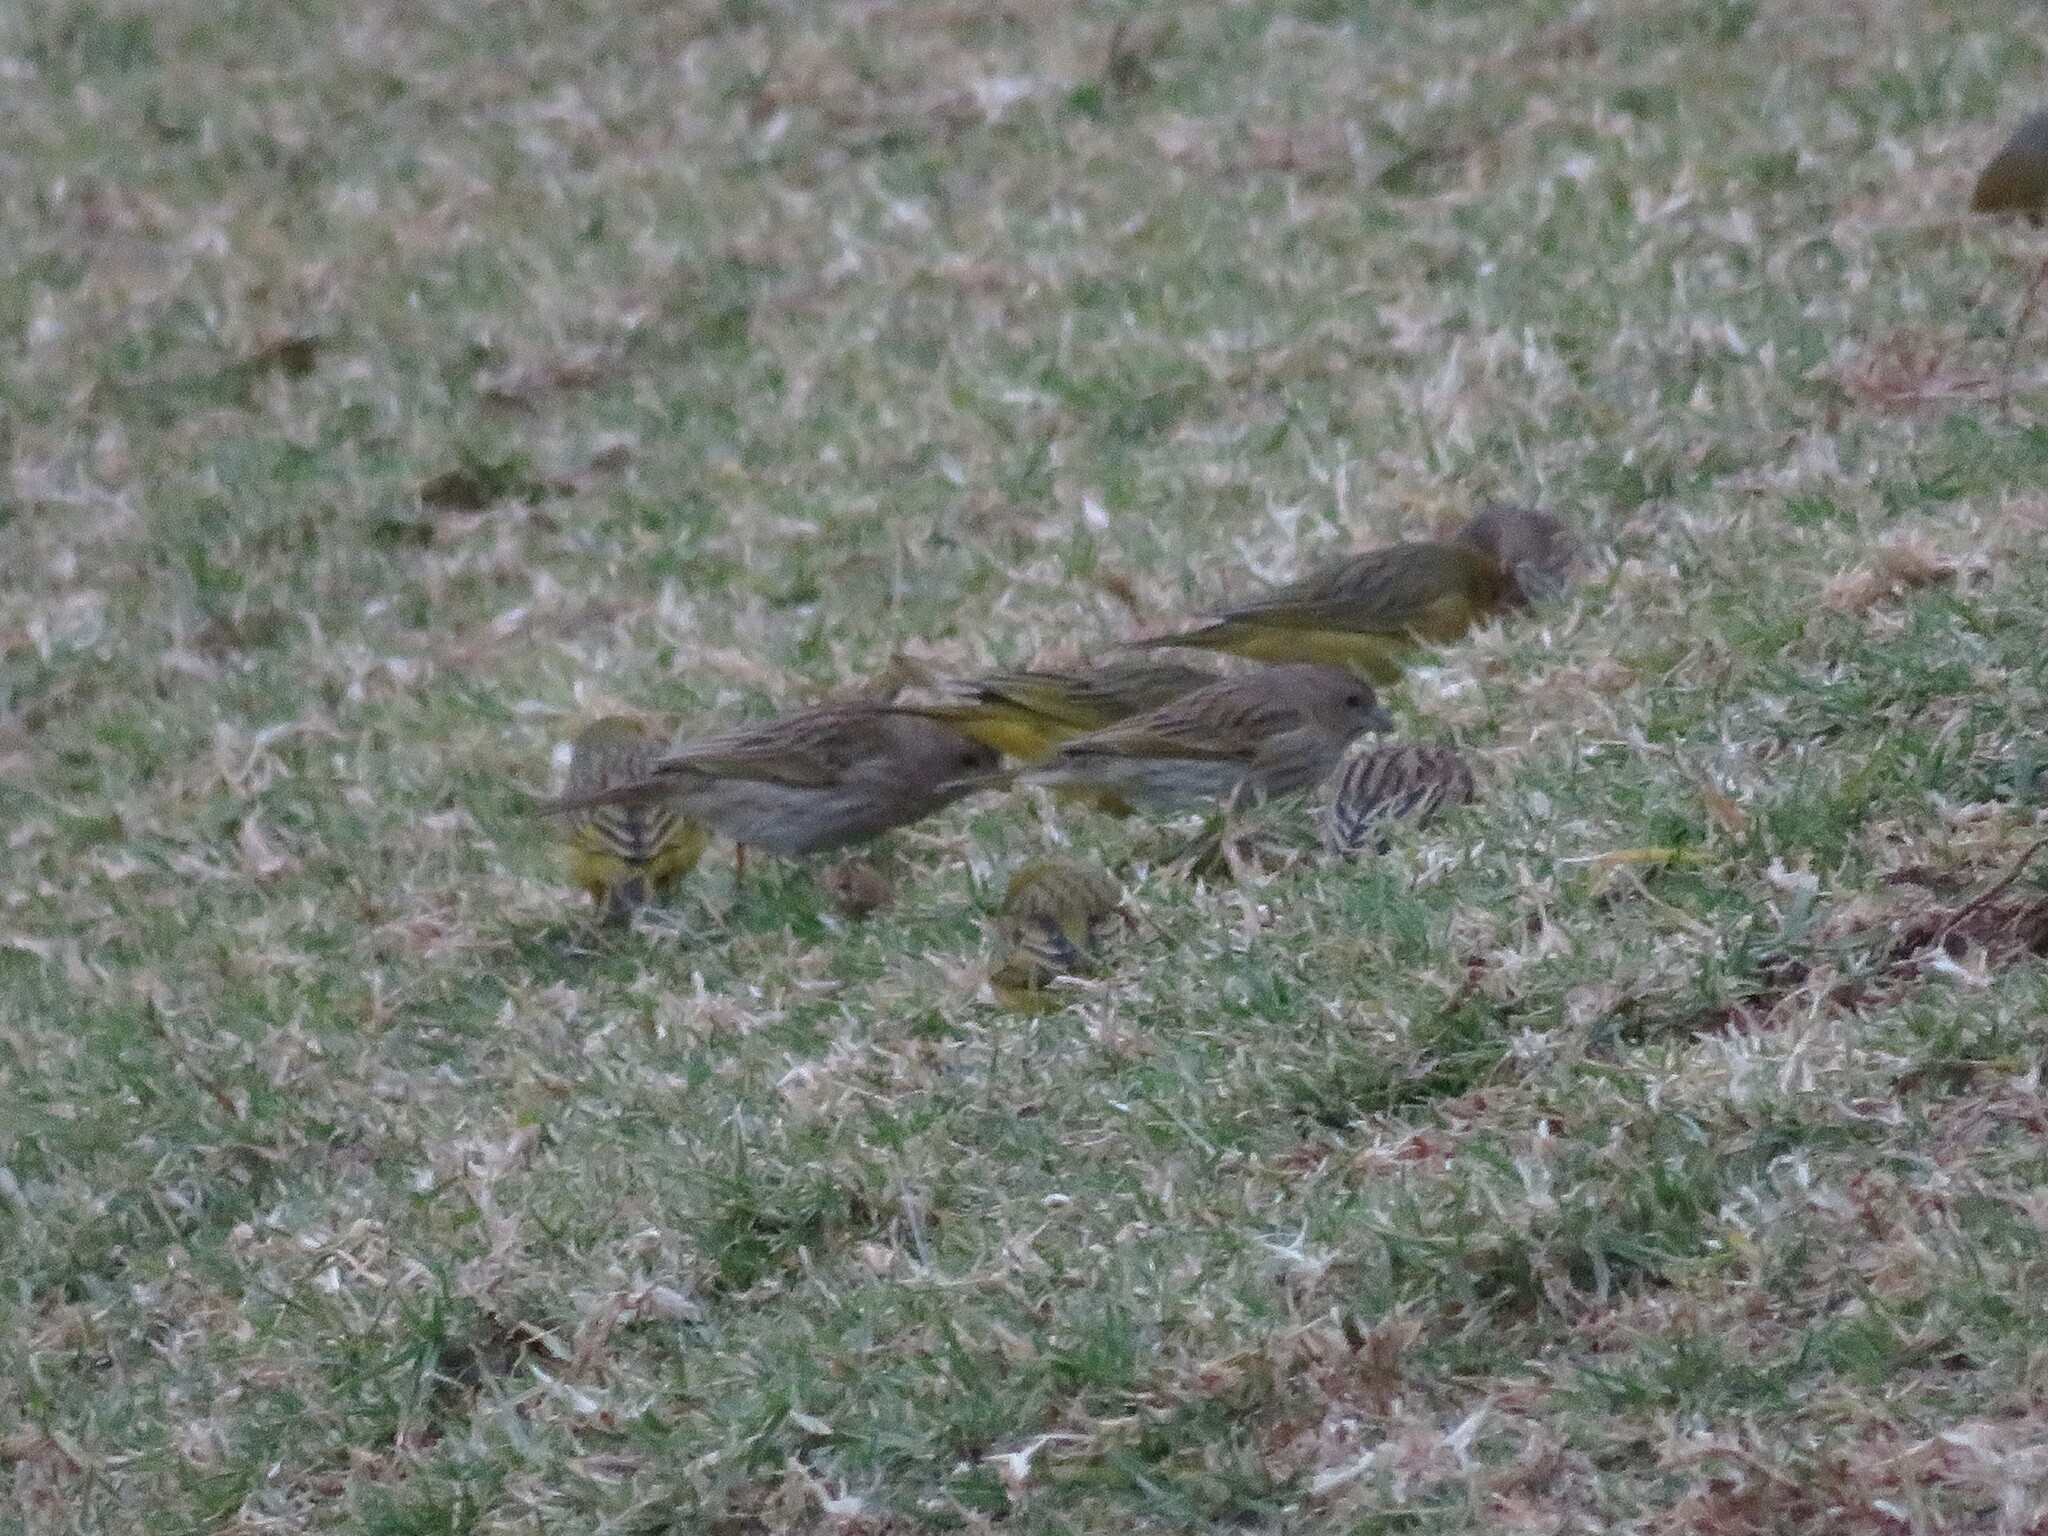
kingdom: Animalia
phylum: Chordata
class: Aves
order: Passeriformes
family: Thraupidae
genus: Sicalis
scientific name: Sicalis flaveola
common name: Saffron finch
